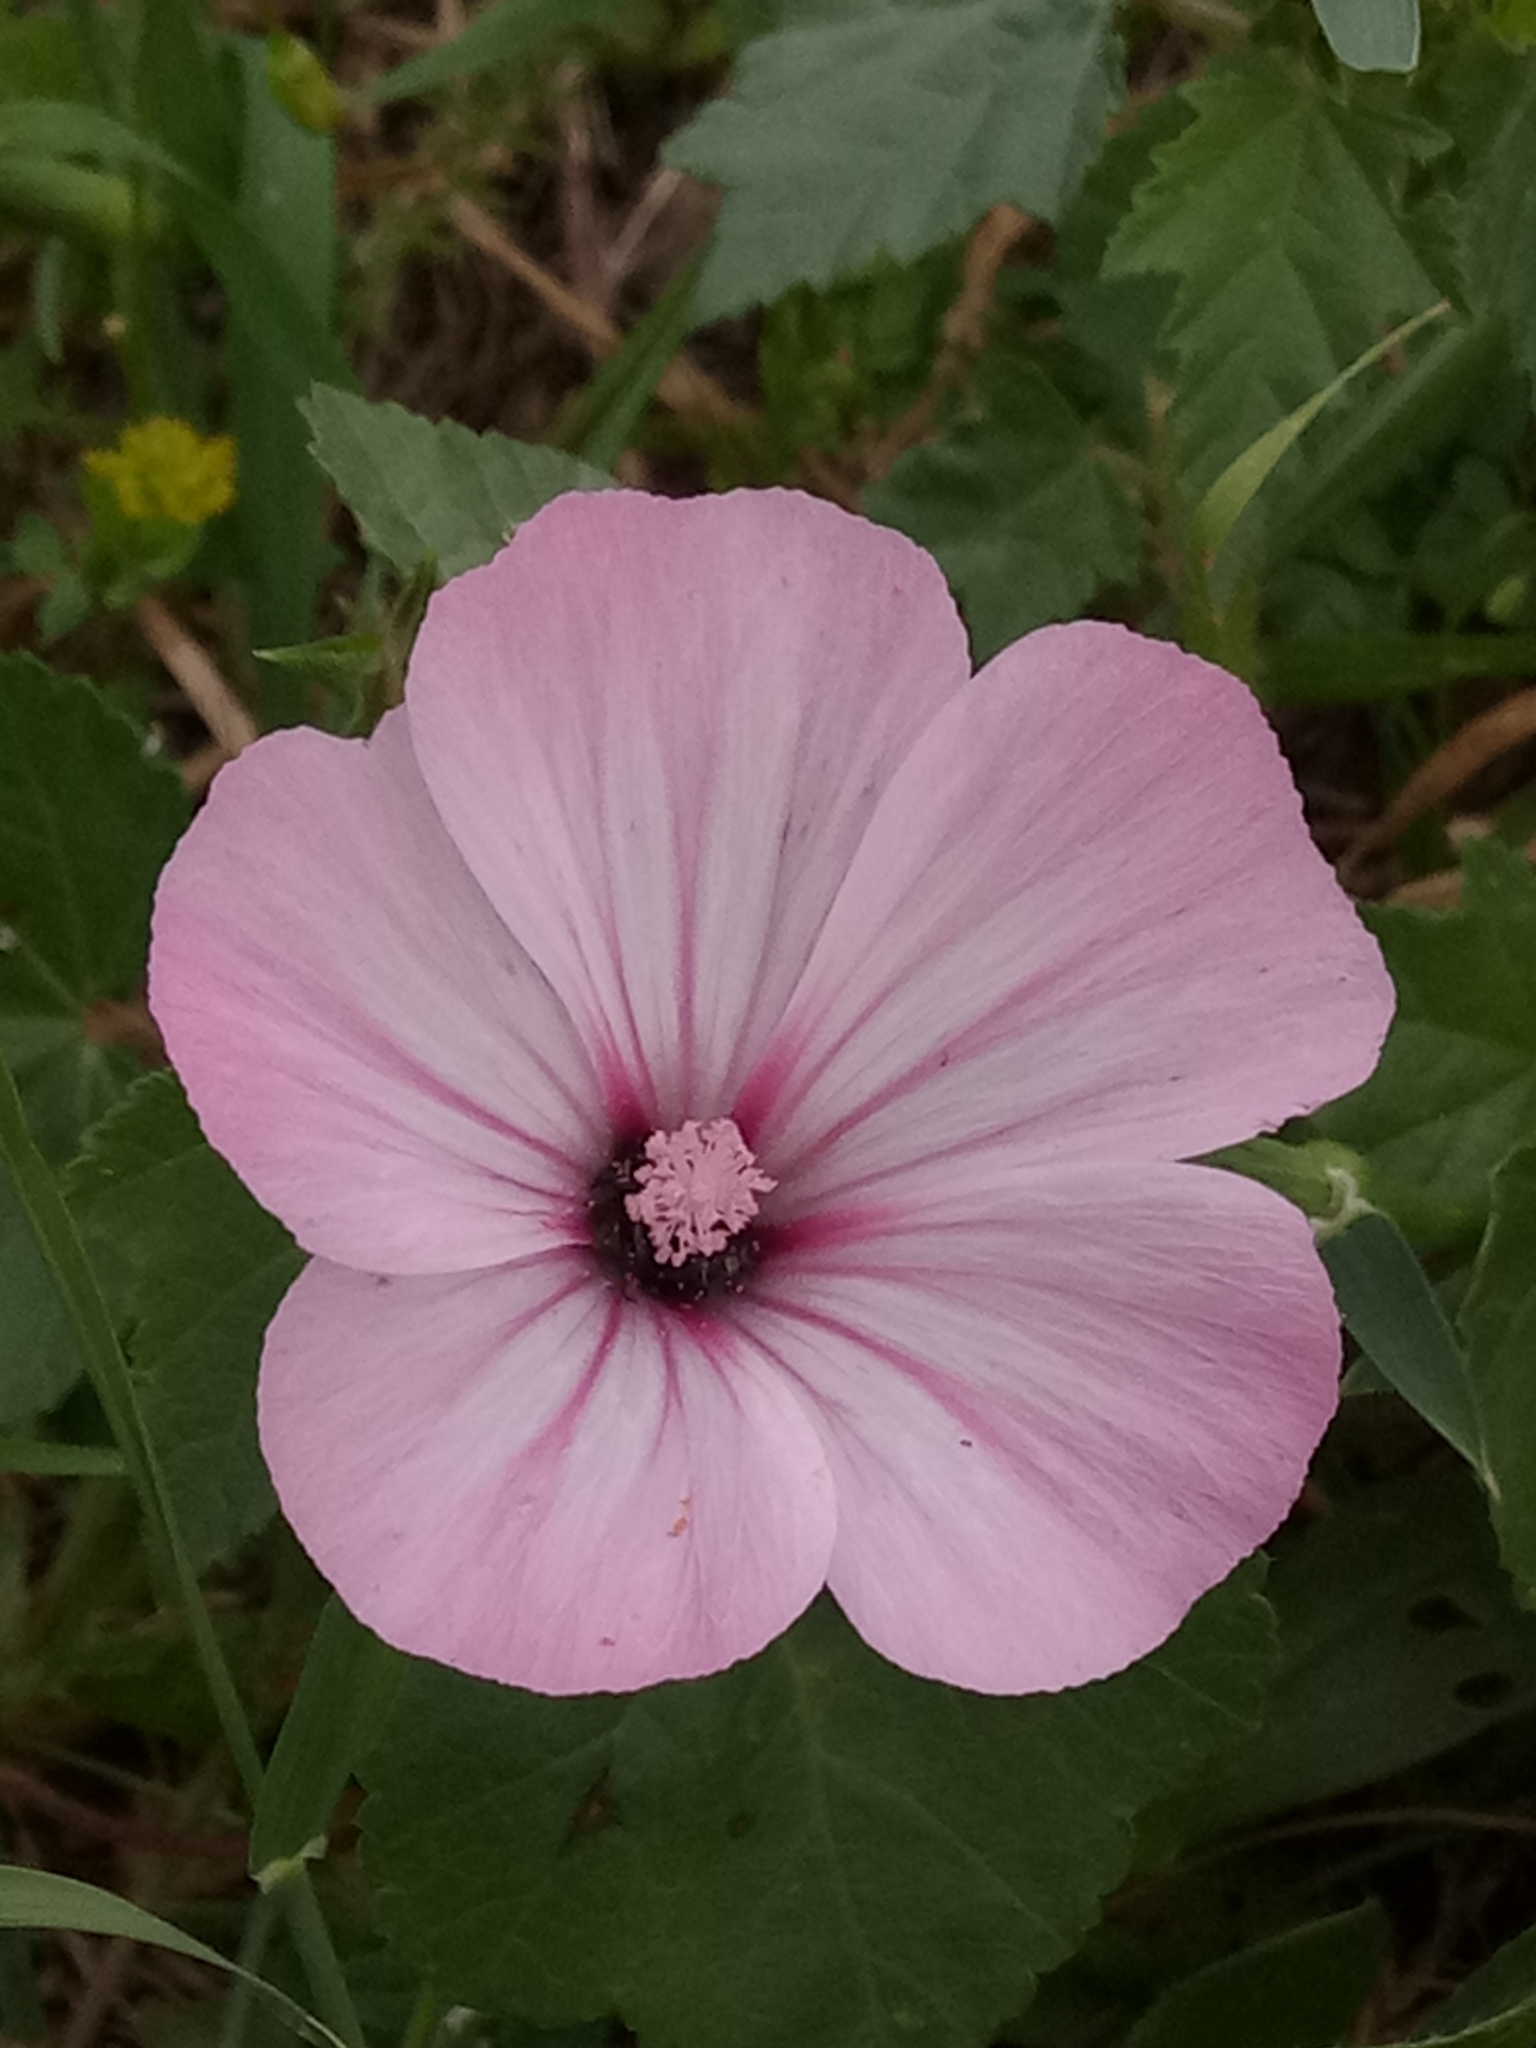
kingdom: Plantae
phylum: Tracheophyta
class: Magnoliopsida
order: Malvales
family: Malvaceae
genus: Malva
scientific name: Malva trimestris
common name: Royal mallow
